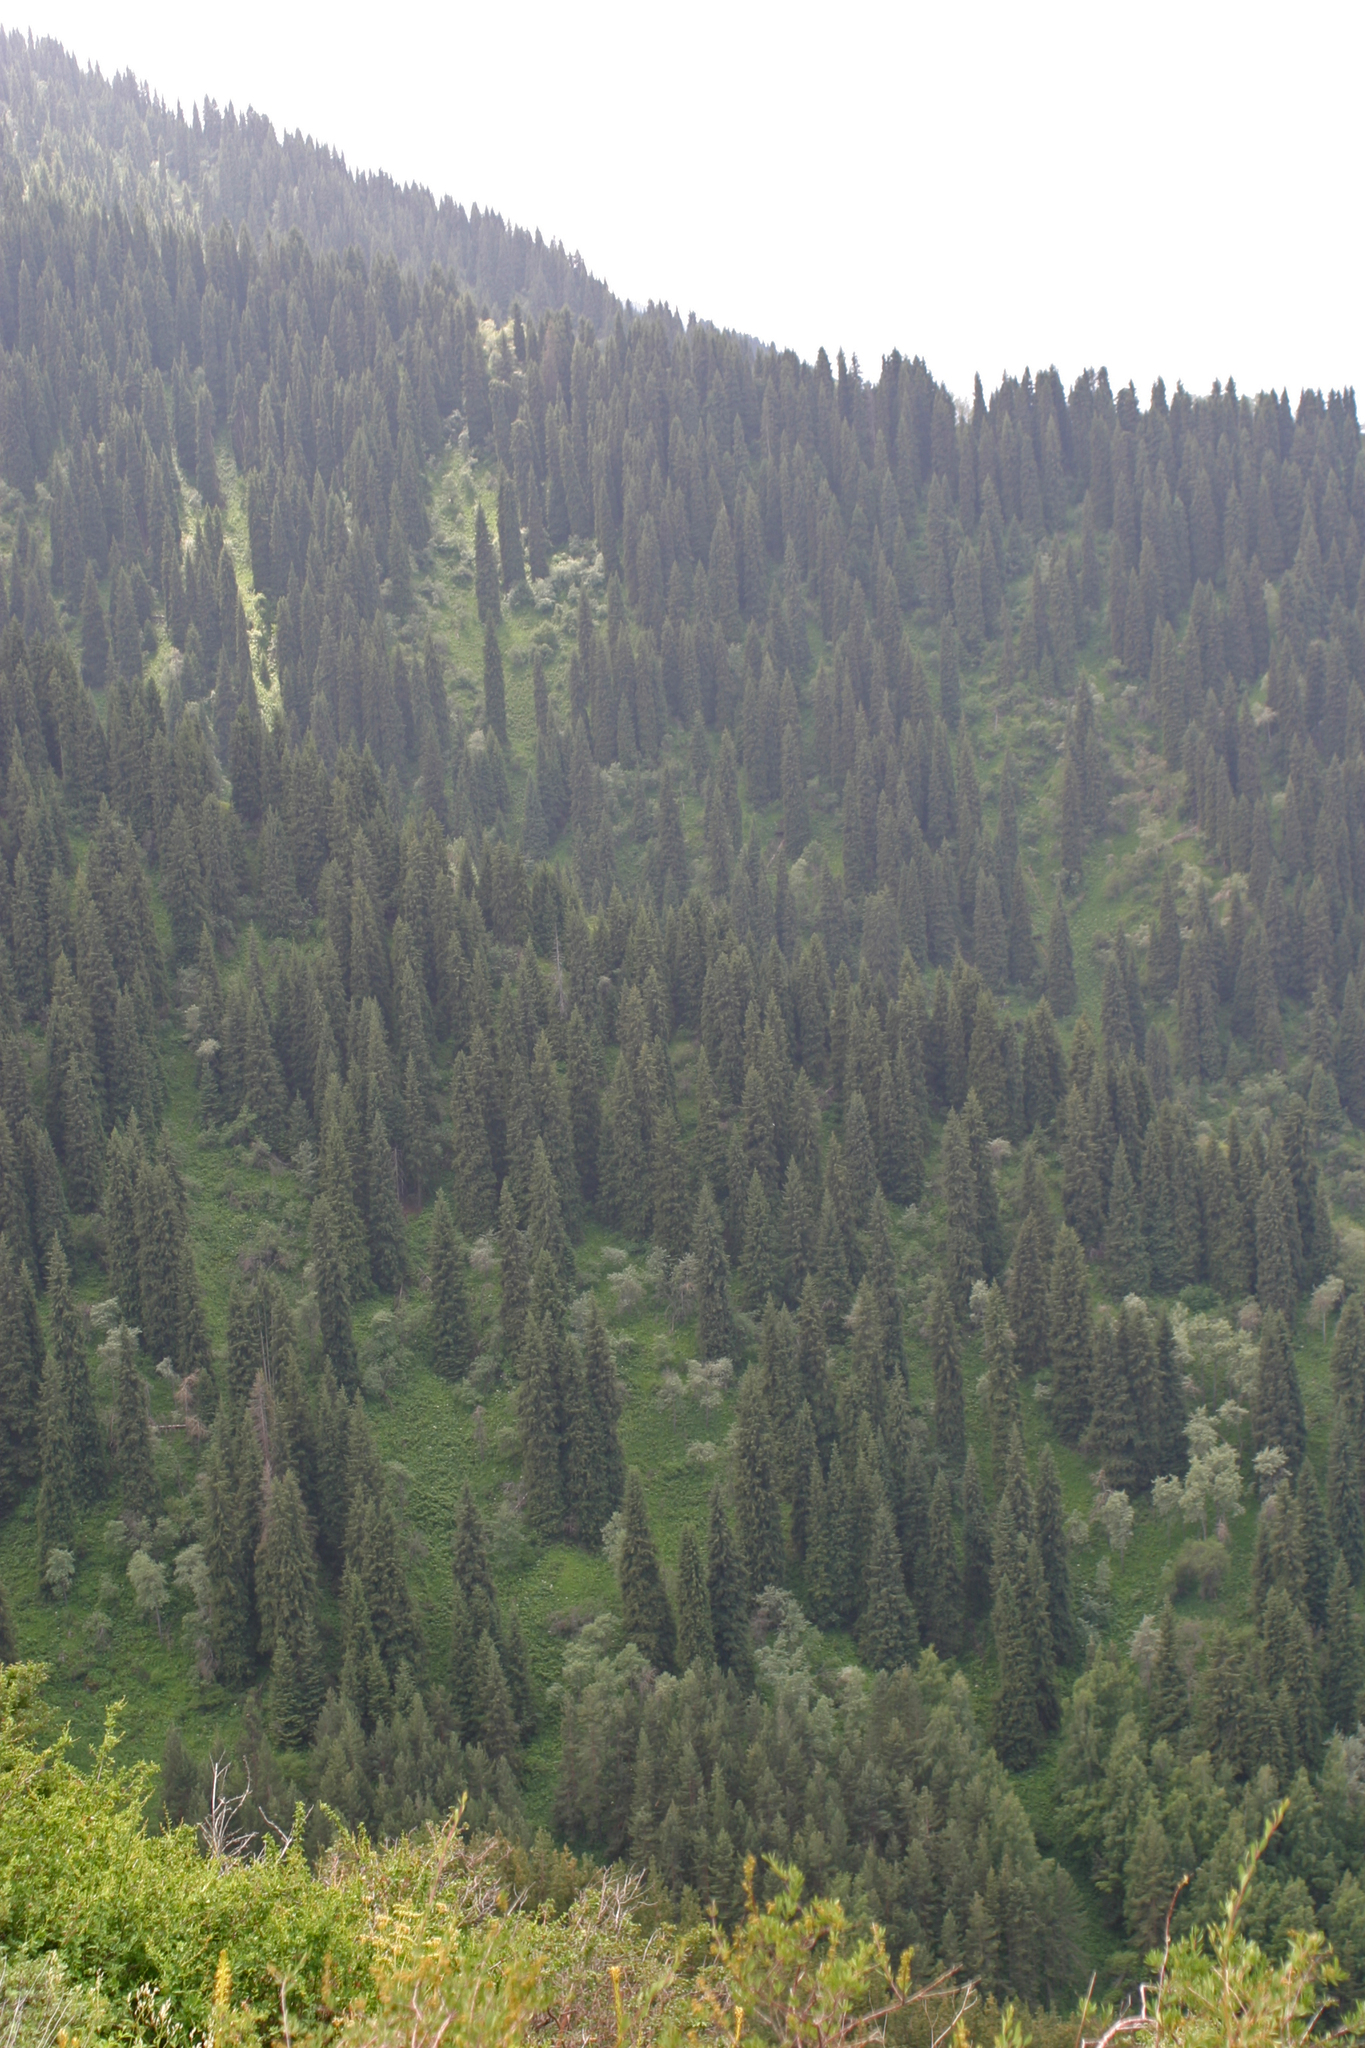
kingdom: Plantae
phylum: Tracheophyta
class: Pinopsida
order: Pinales
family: Pinaceae
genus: Picea
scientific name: Picea schrenkiana
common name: Asian spruce
